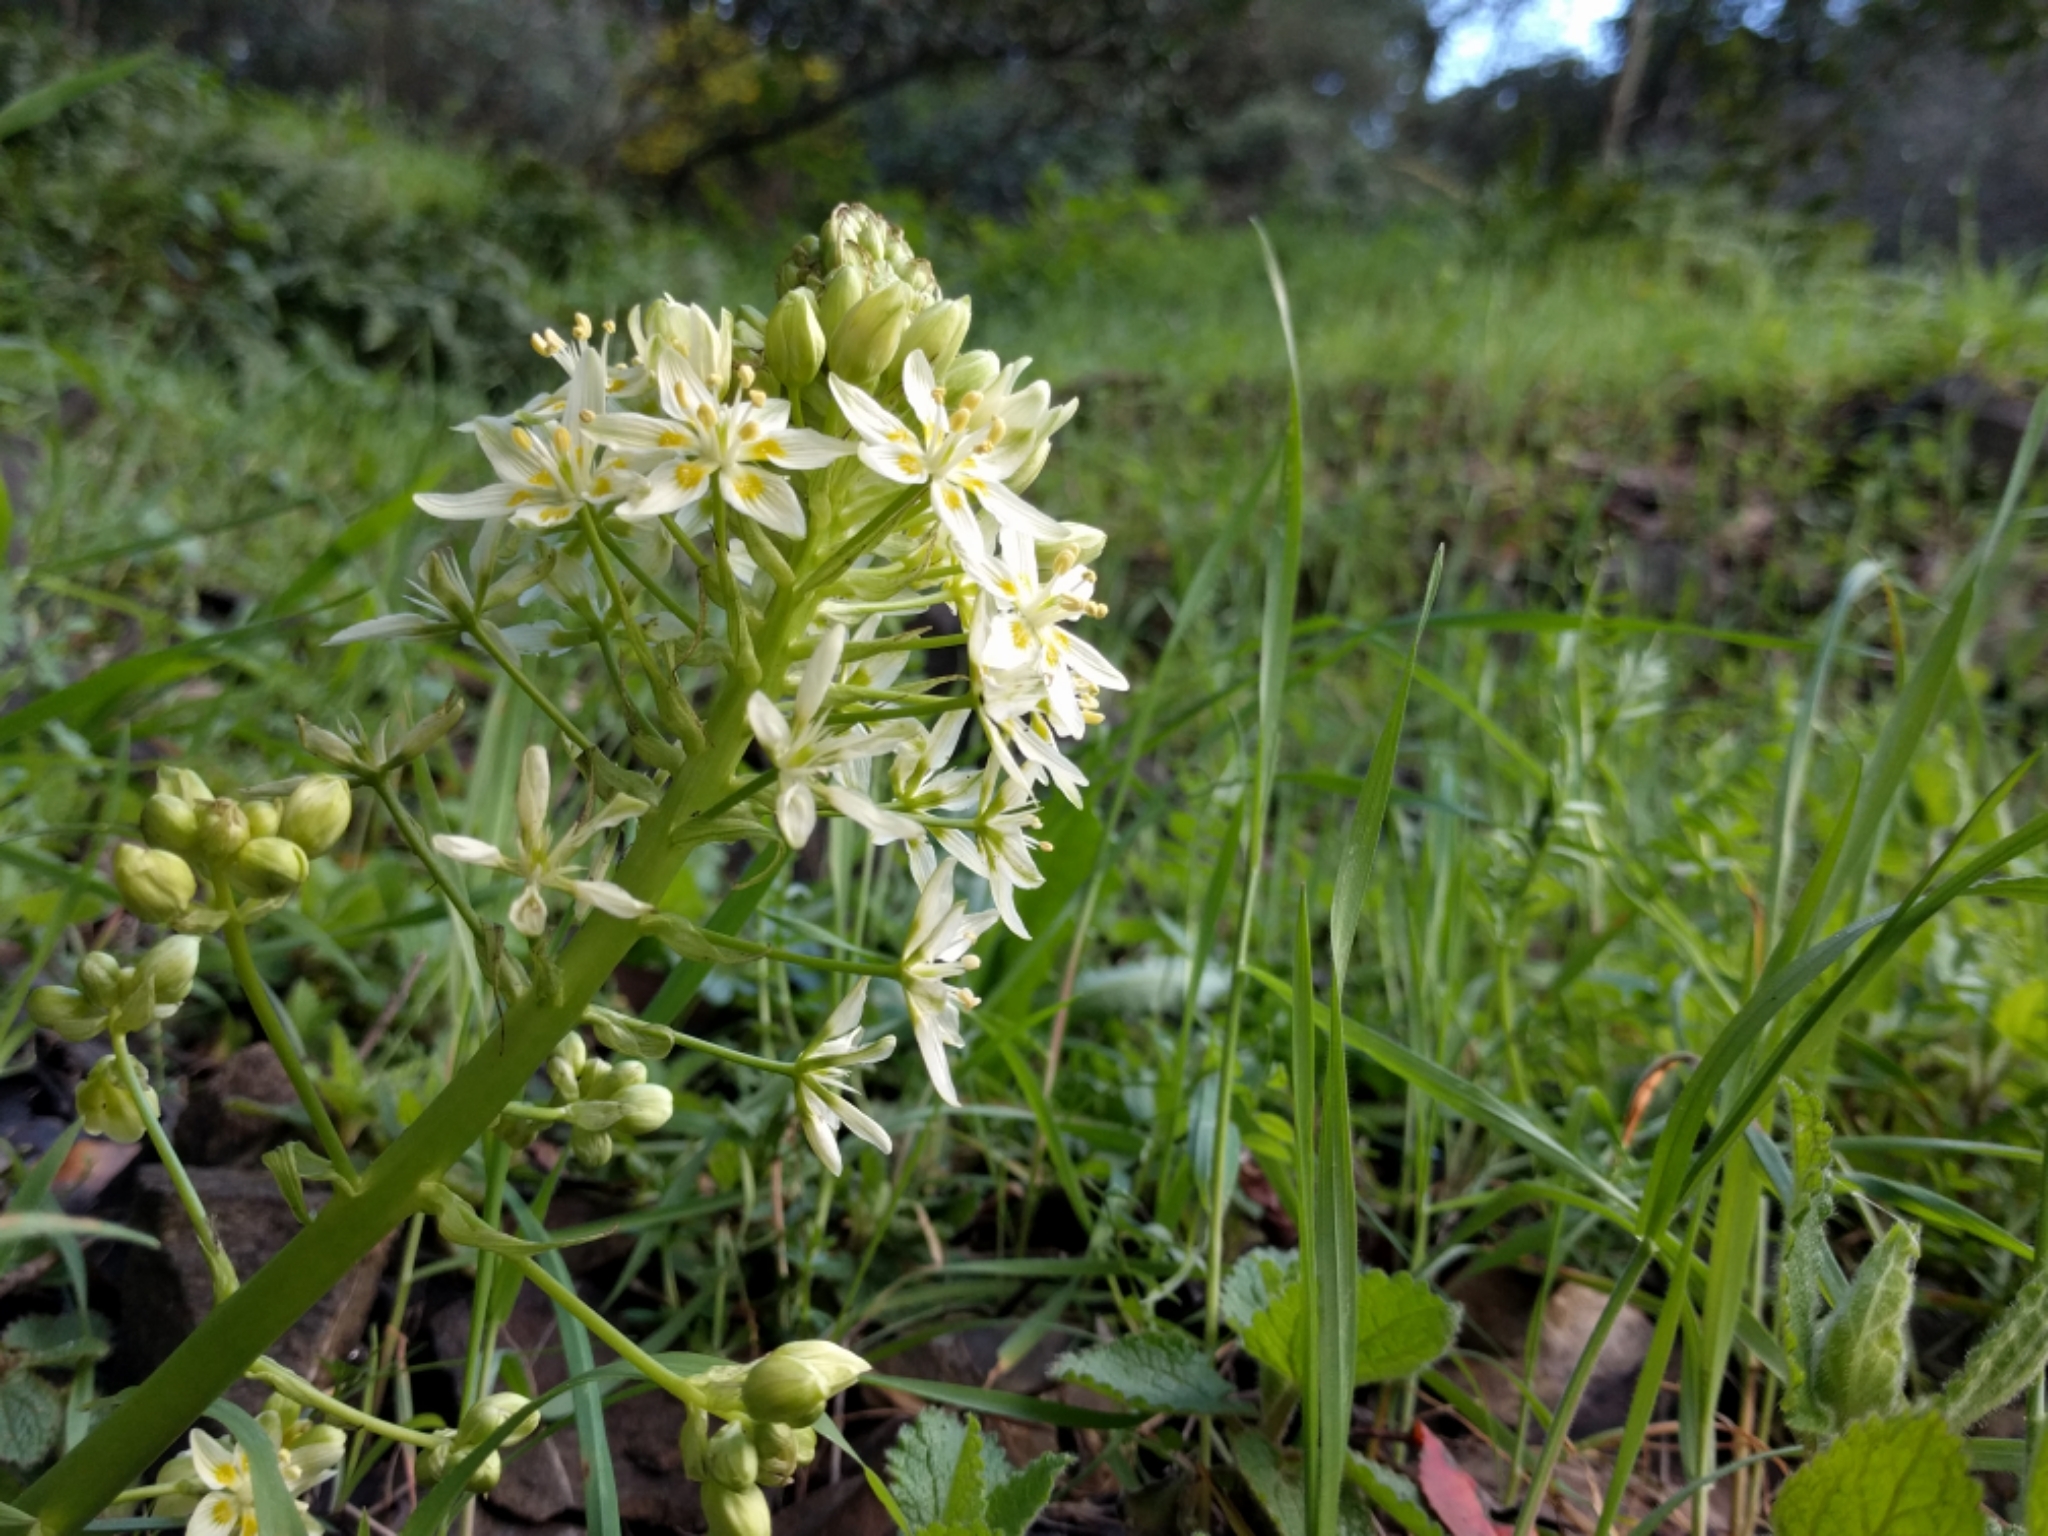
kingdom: Plantae
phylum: Tracheophyta
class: Liliopsida
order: Liliales
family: Melanthiaceae
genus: Toxicoscordion
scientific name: Toxicoscordion fremontii
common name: Fremont's death camas
